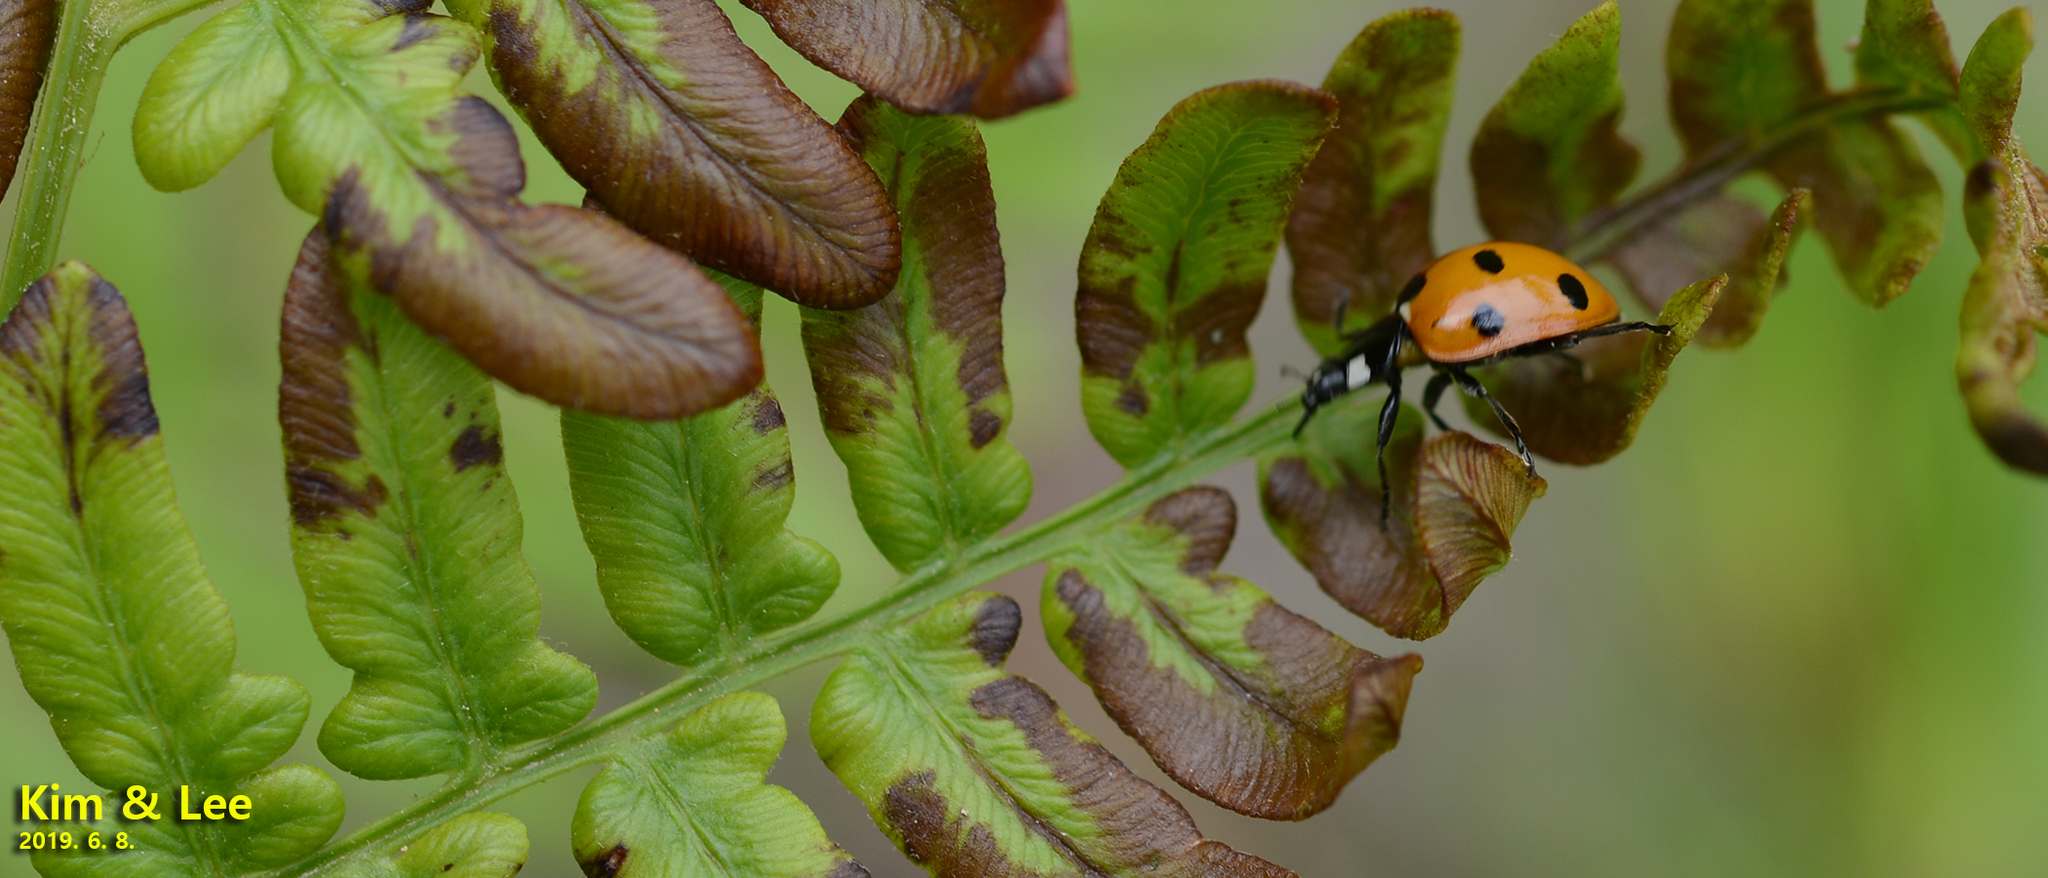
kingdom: Animalia
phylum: Arthropoda
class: Insecta
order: Coleoptera
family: Coccinellidae
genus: Coccinella
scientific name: Coccinella septempunctata
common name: Sevenspotted lady beetle
